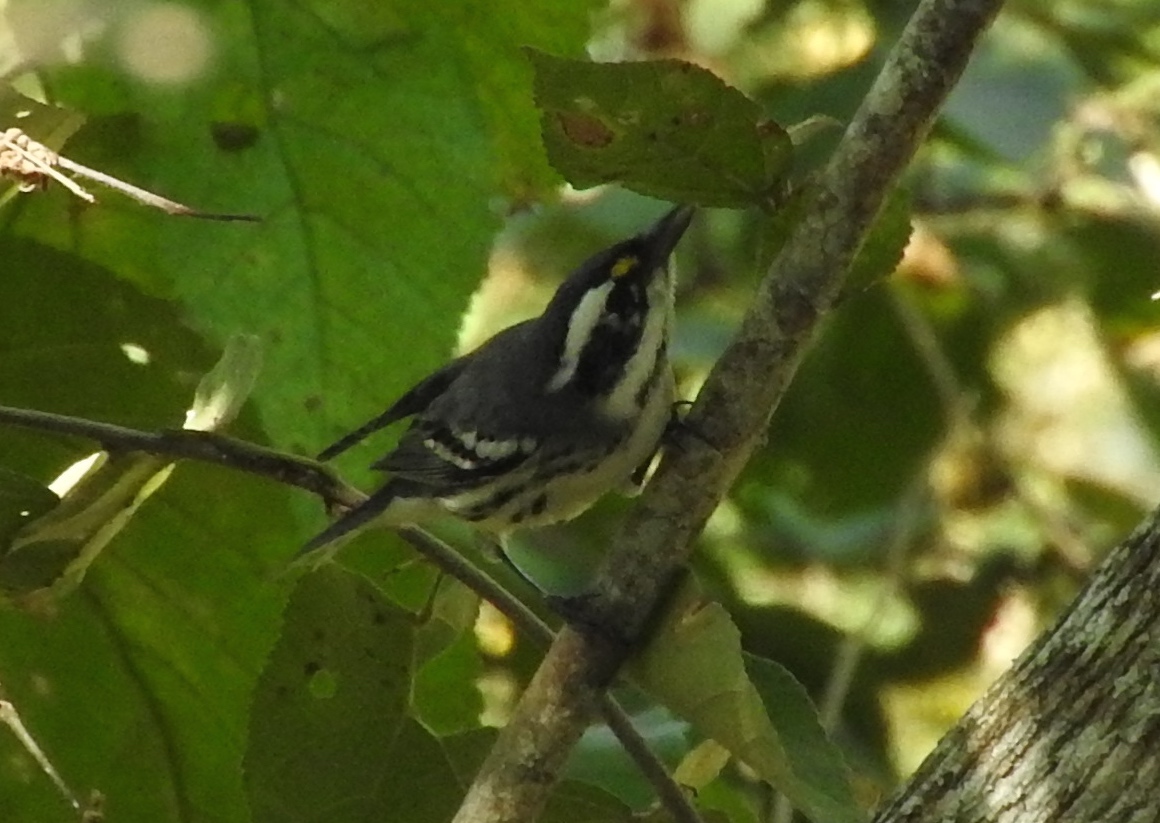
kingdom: Animalia
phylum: Chordata
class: Aves
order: Passeriformes
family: Parulidae
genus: Setophaga
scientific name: Setophaga nigrescens
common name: Black-throated gray warbler
